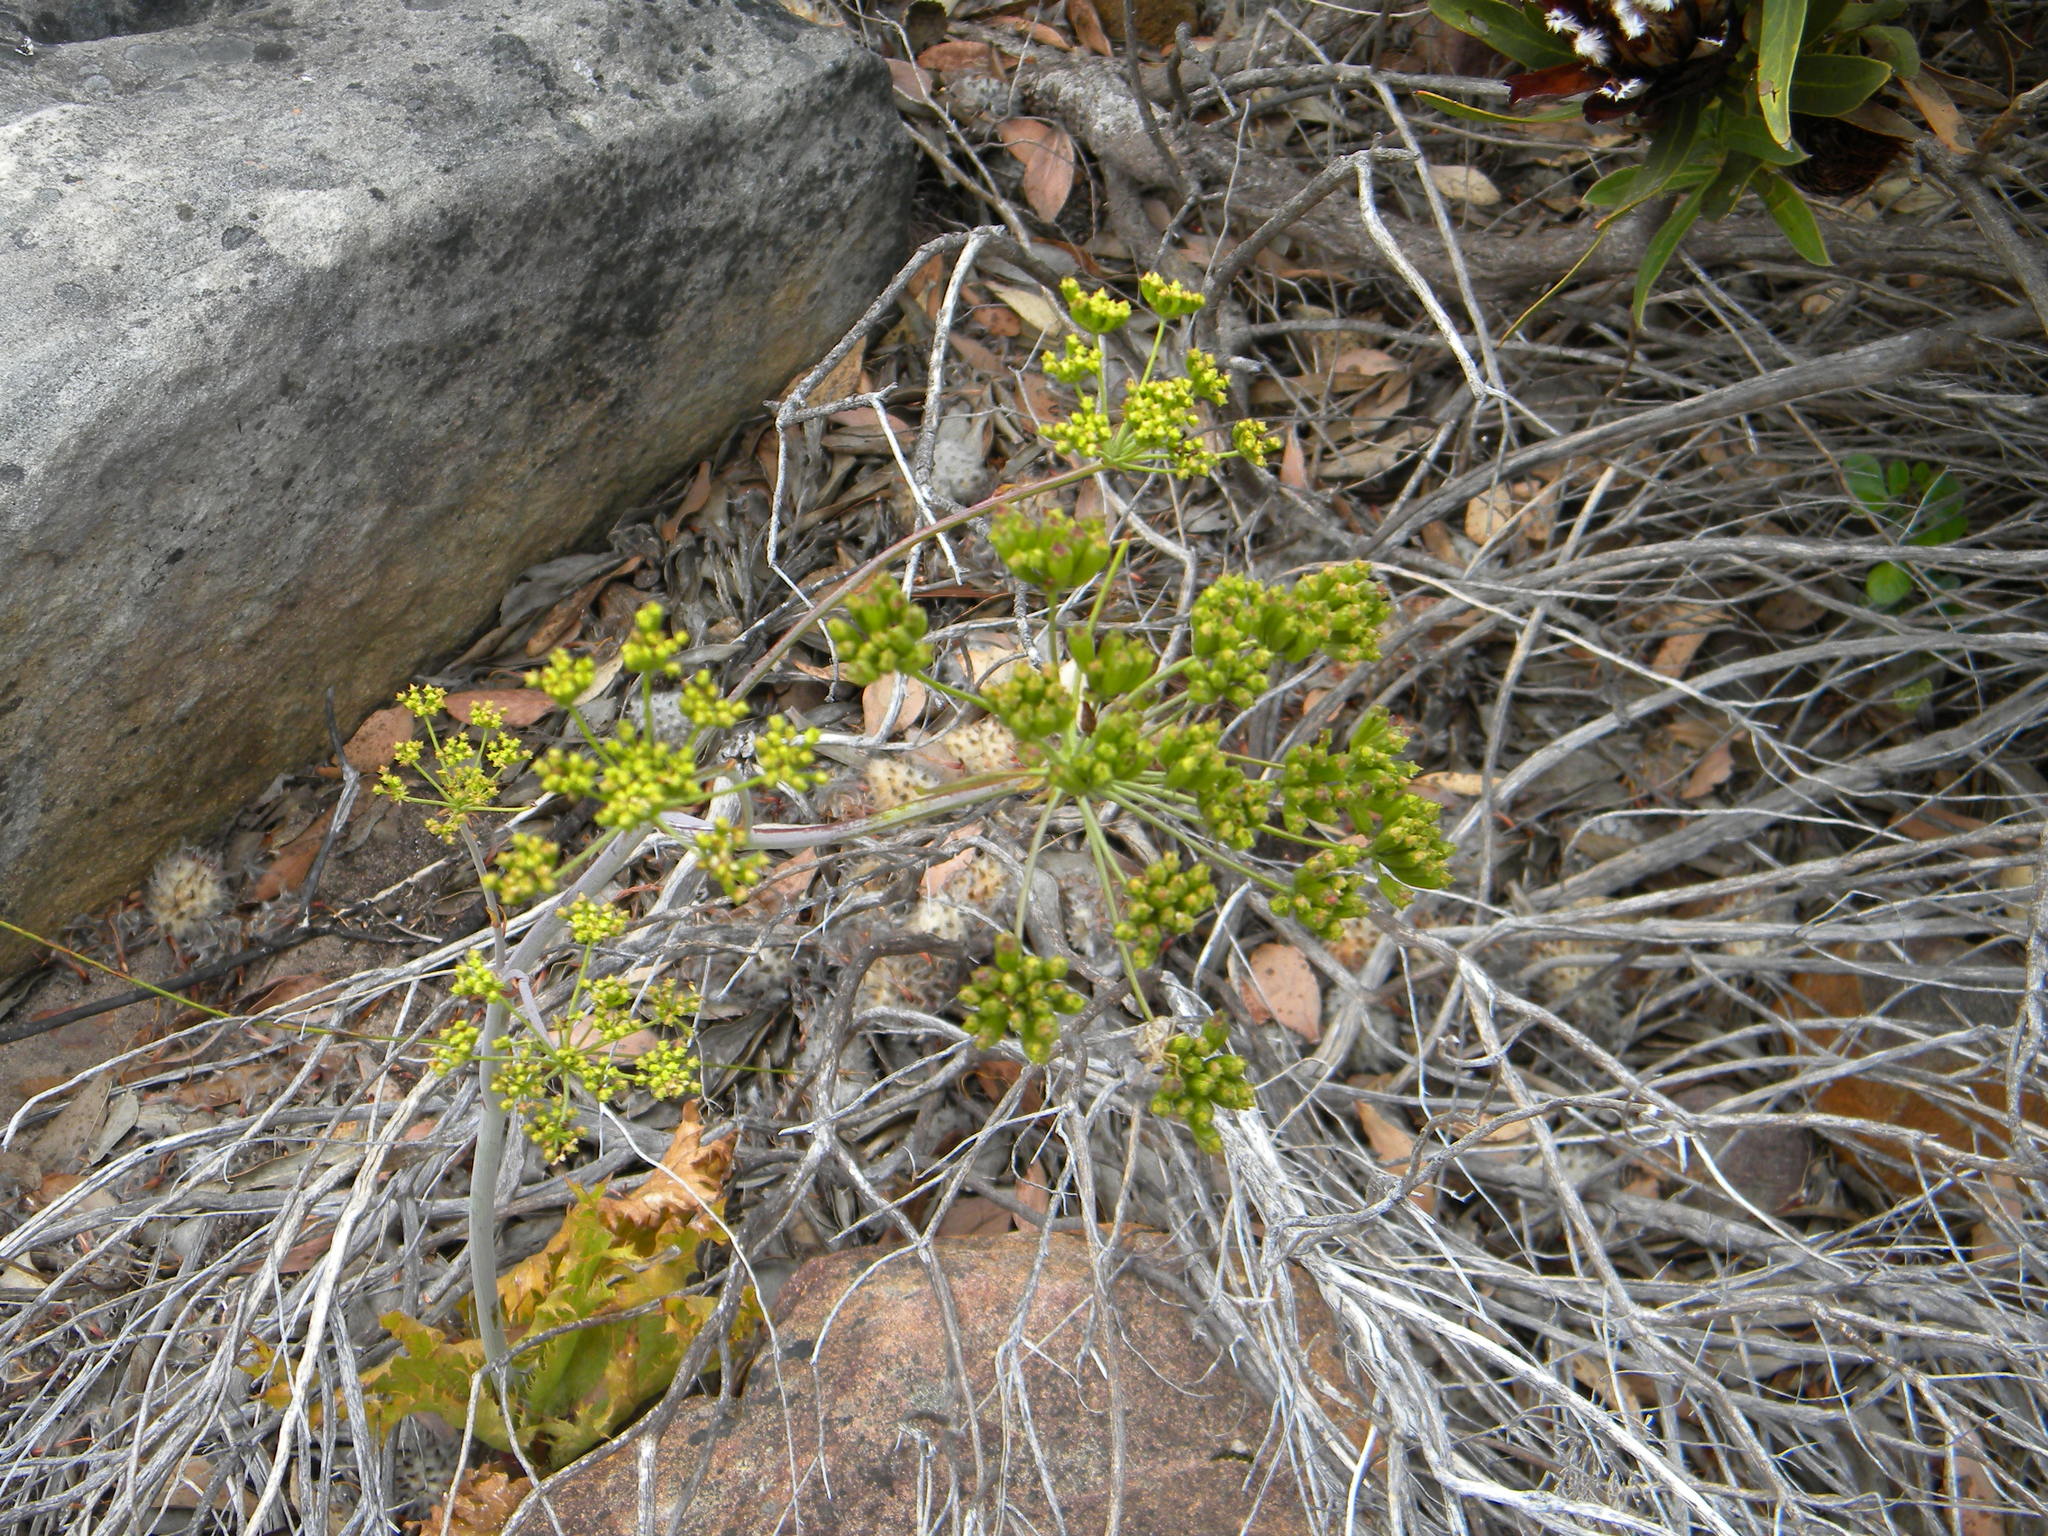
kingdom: Plantae
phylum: Tracheophyta
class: Magnoliopsida
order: Apiales
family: Apiaceae
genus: Lichtensteinia
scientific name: Lichtensteinia lacera
